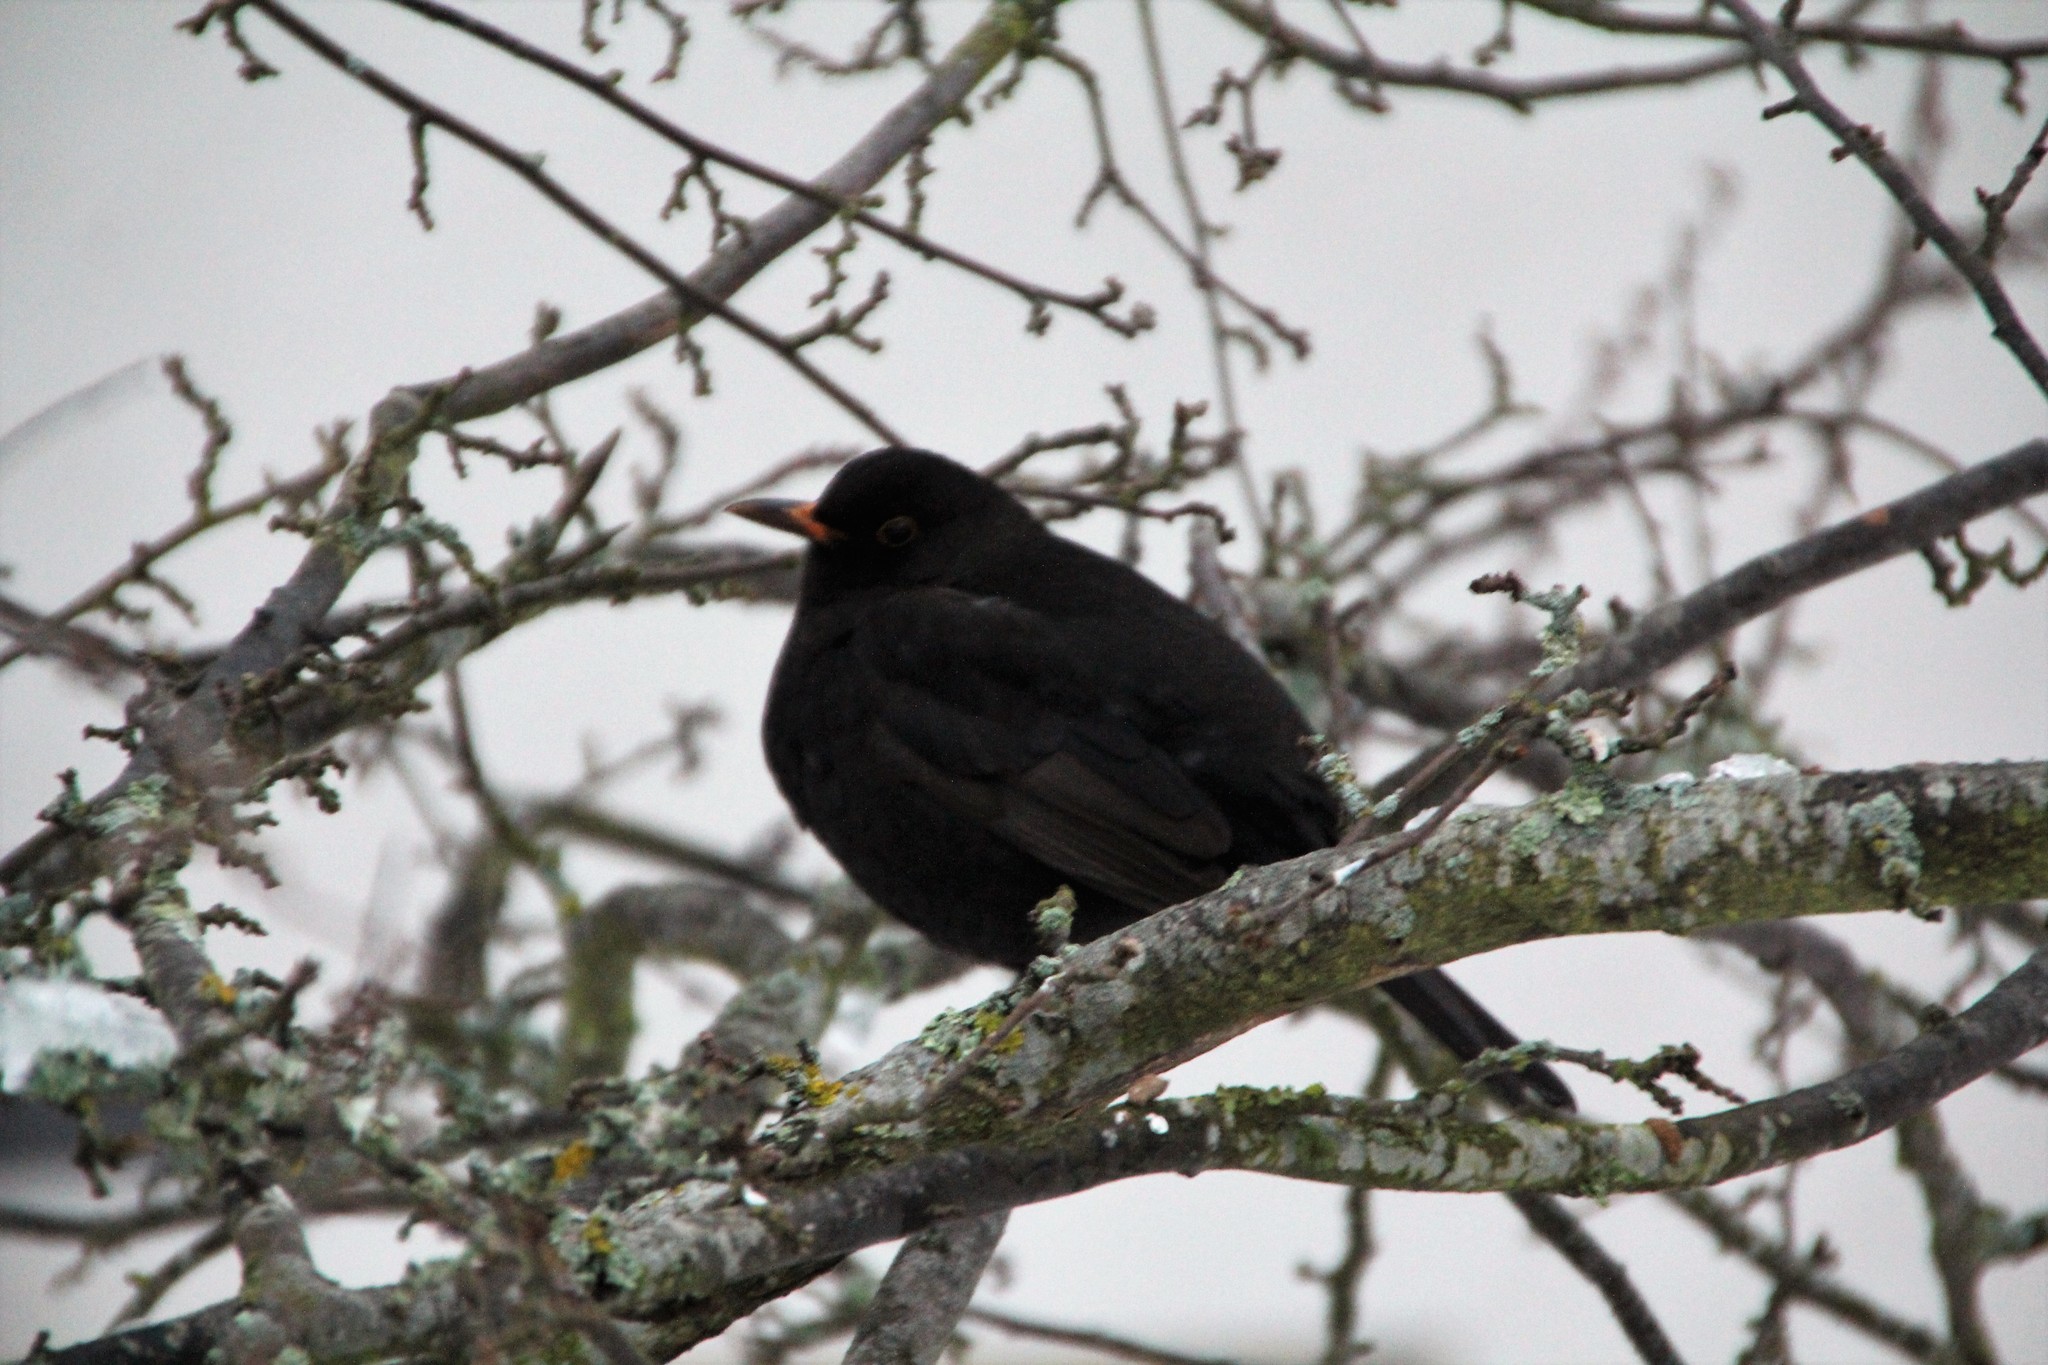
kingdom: Animalia
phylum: Chordata
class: Aves
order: Passeriformes
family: Turdidae
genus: Turdus
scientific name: Turdus merula
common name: Common blackbird
